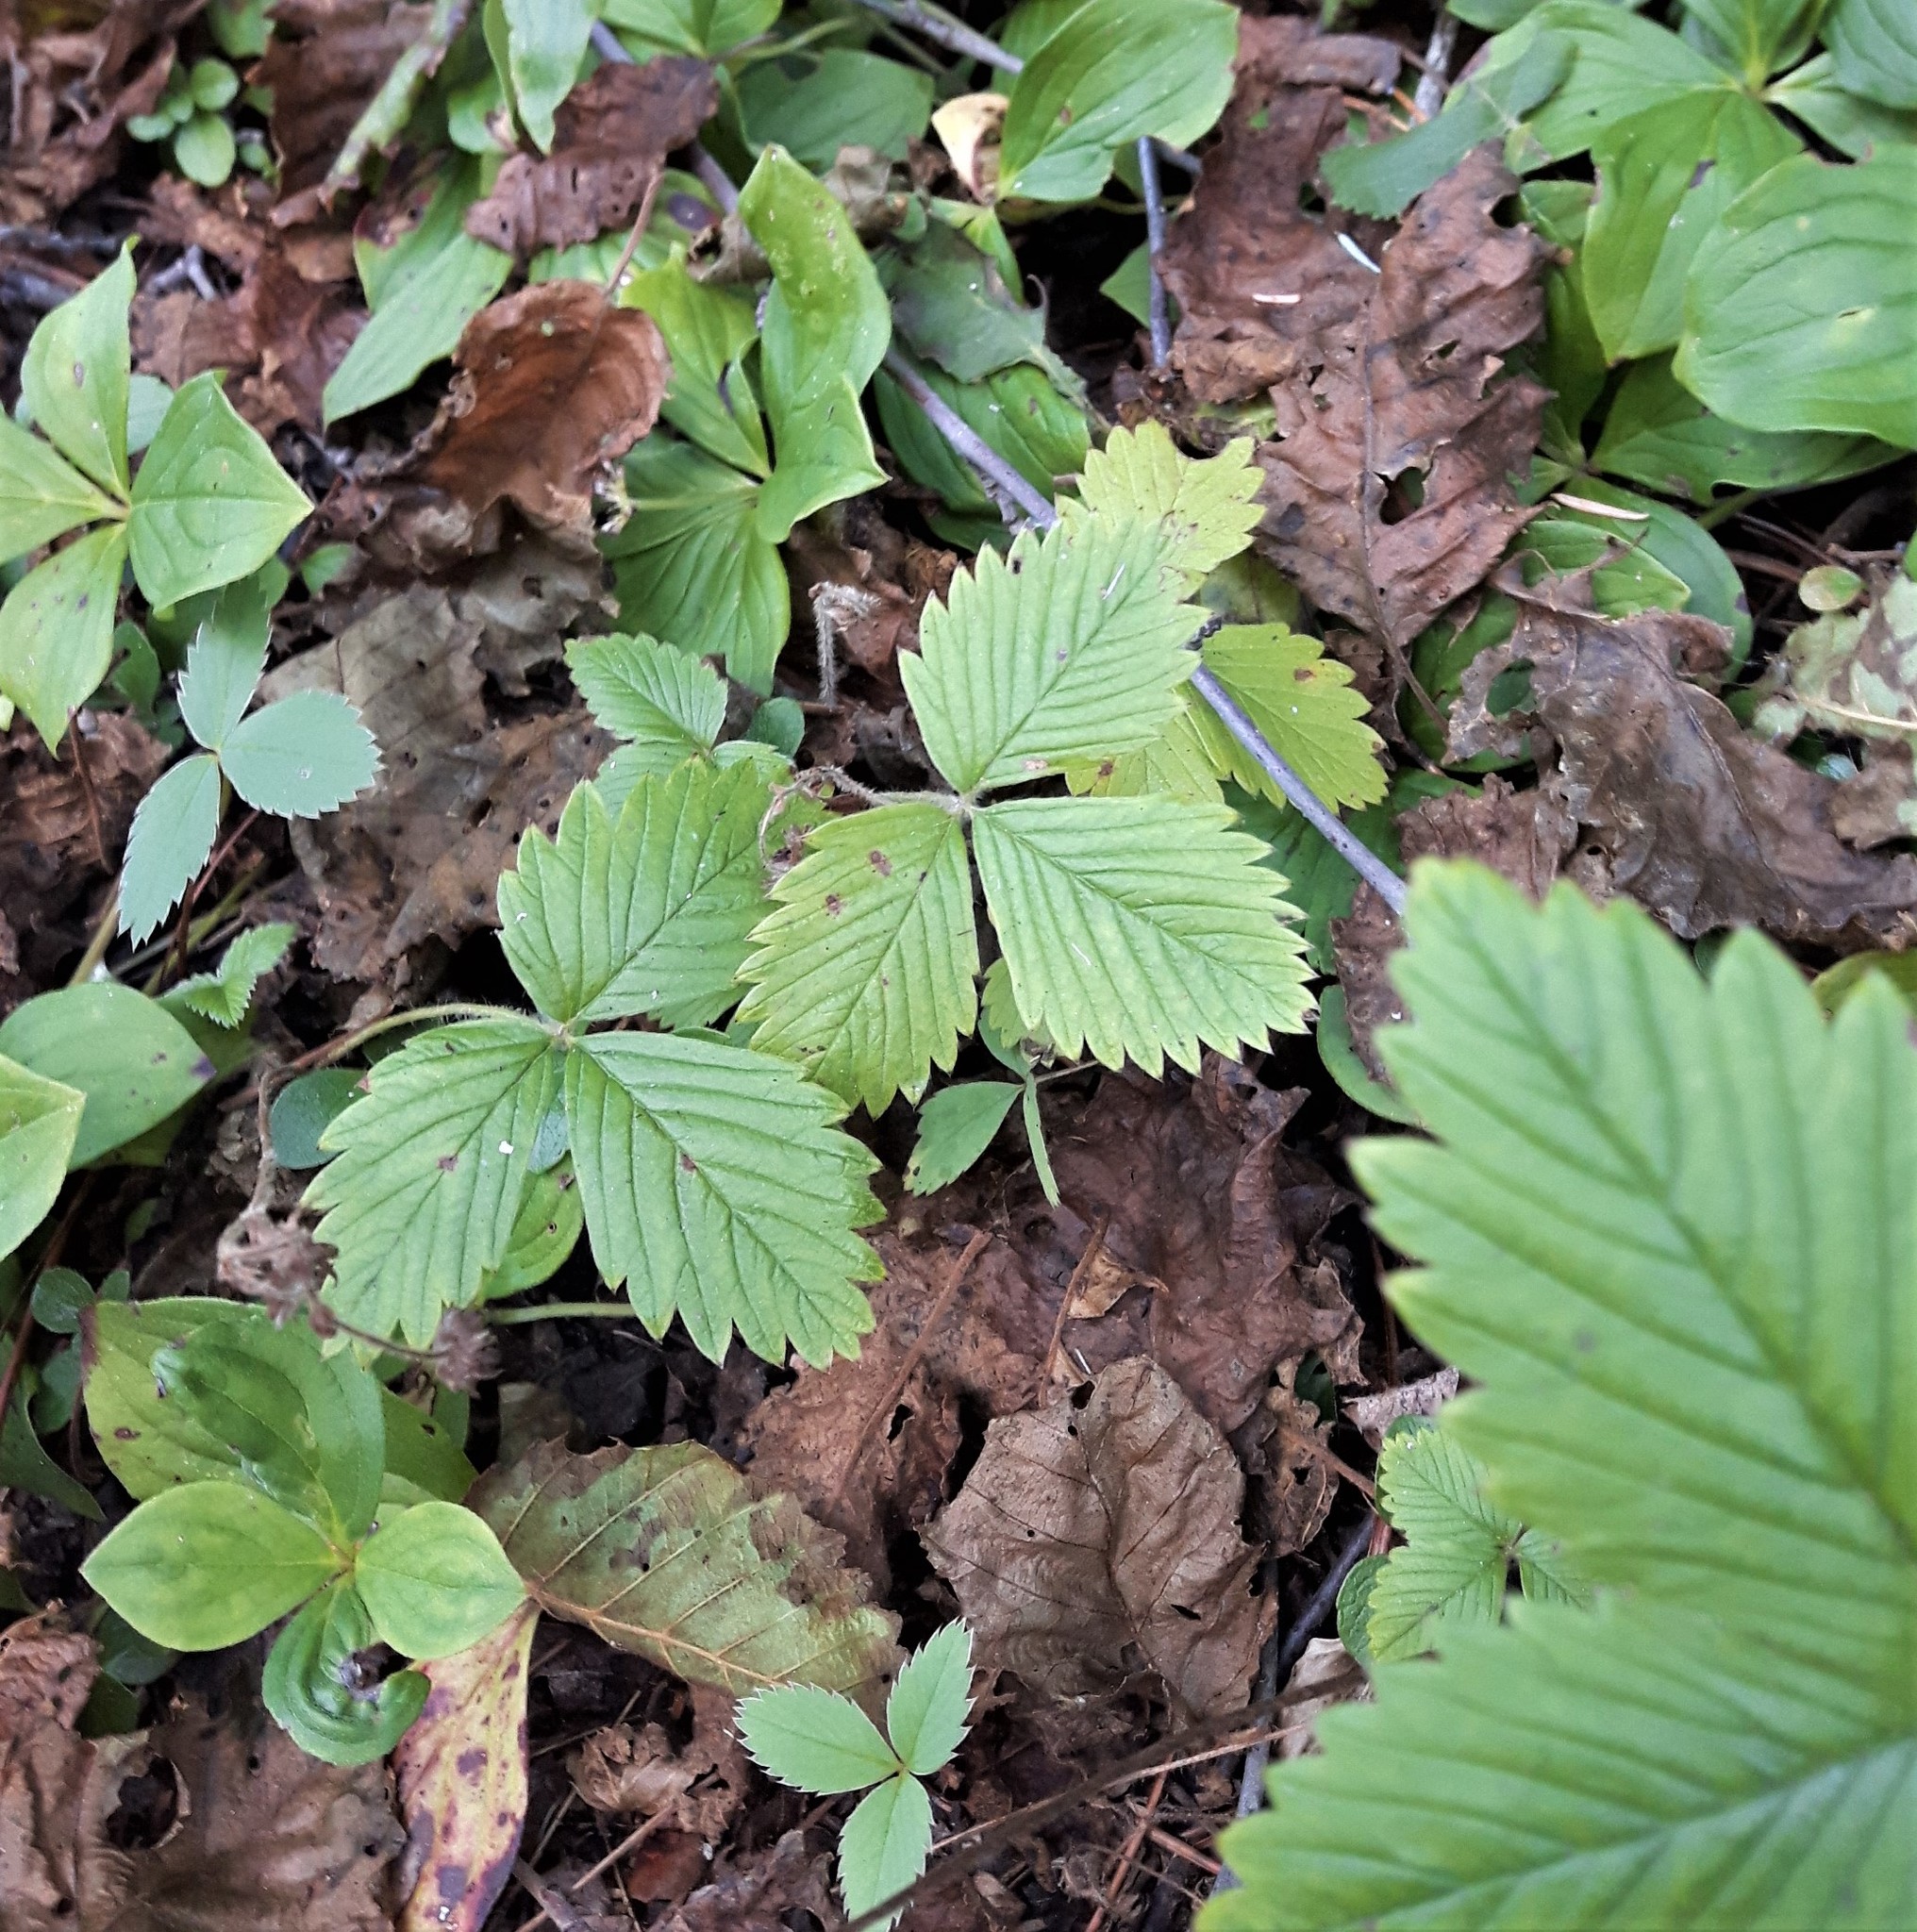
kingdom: Plantae
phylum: Tracheophyta
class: Magnoliopsida
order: Rosales
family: Rosaceae
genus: Fragaria
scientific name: Fragaria vesca
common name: Wild strawberry
